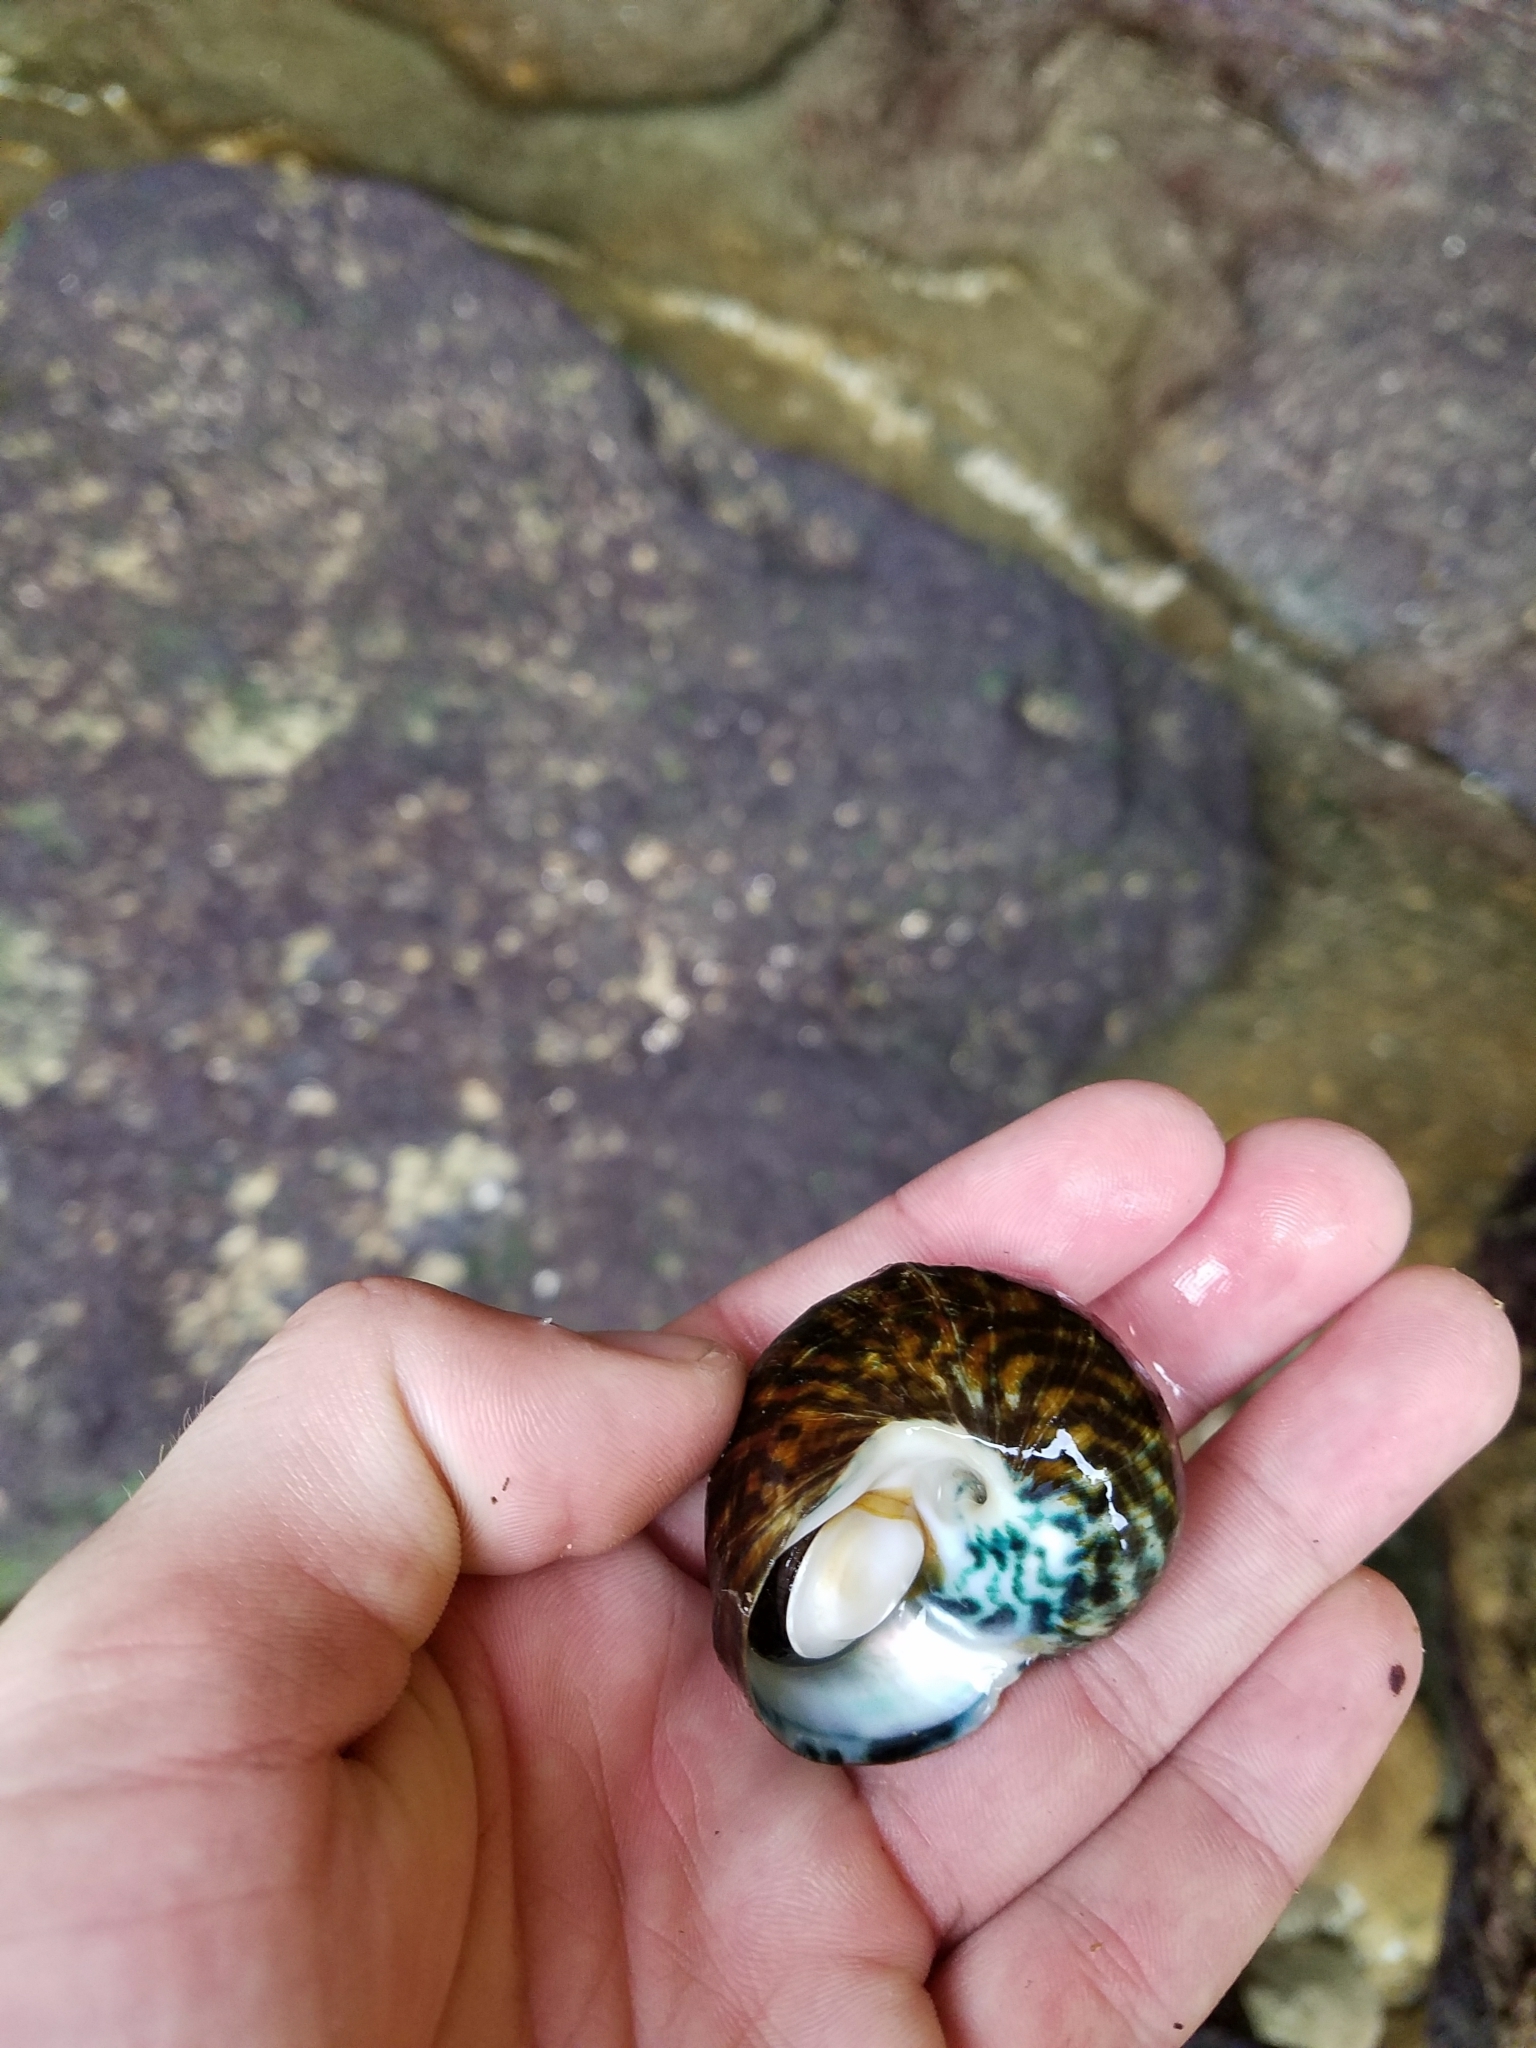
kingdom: Animalia
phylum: Mollusca
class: Gastropoda
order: Trochida
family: Turbinidae
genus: Lunella
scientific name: Lunella undulata
